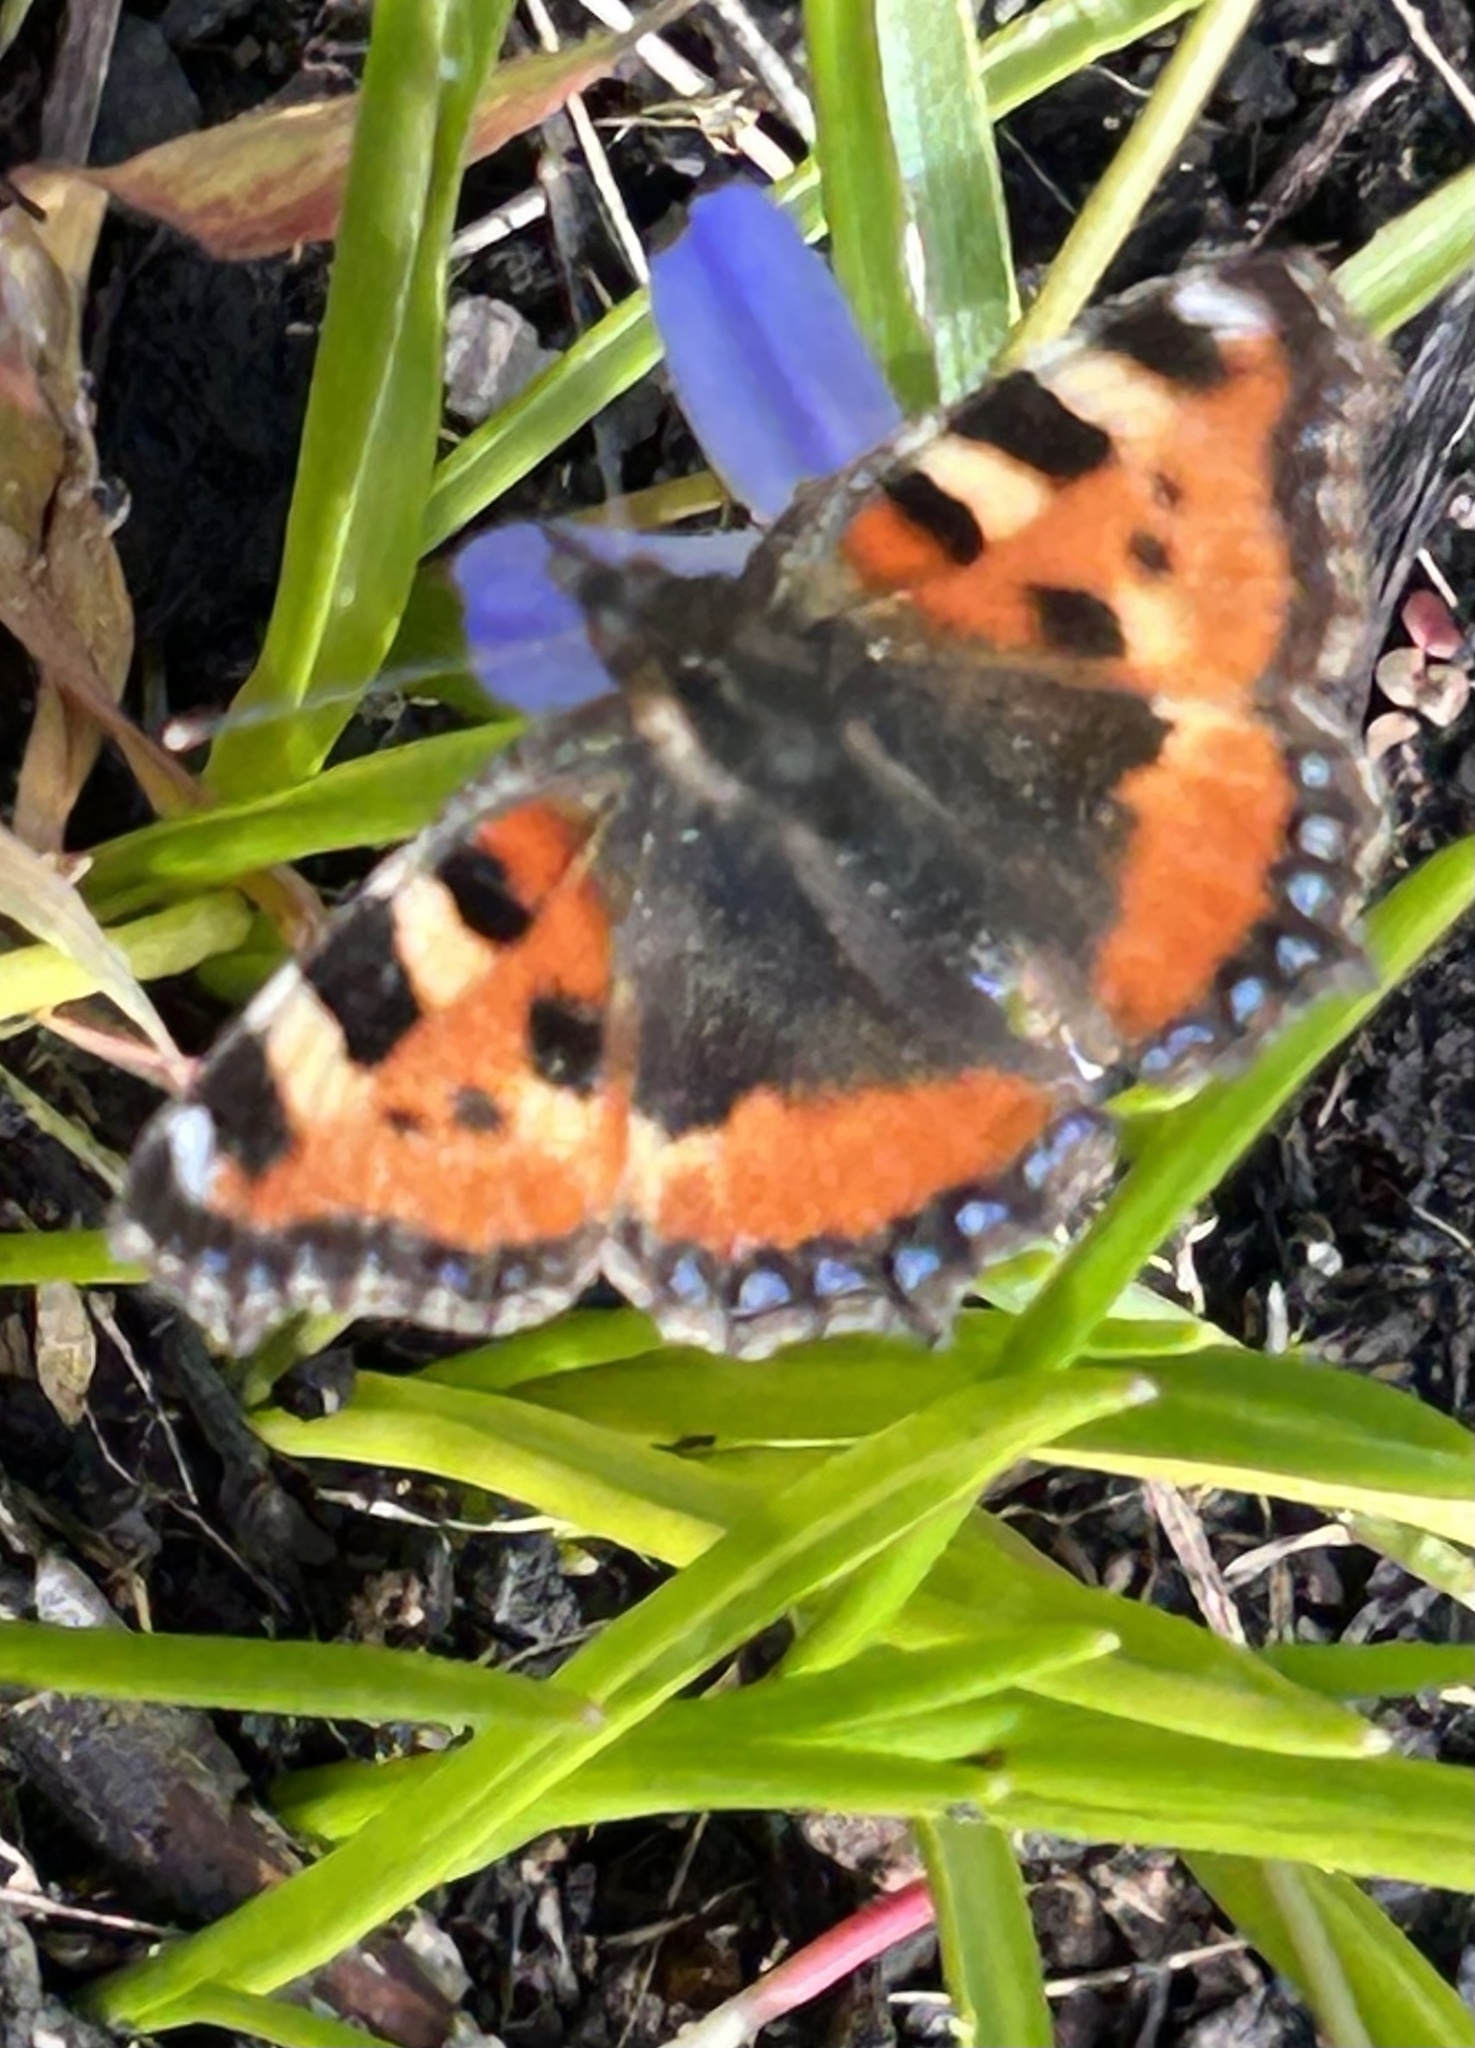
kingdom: Animalia
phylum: Arthropoda
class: Insecta
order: Lepidoptera
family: Nymphalidae
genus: Aglais
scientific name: Aglais urticae
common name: Small tortoiseshell
